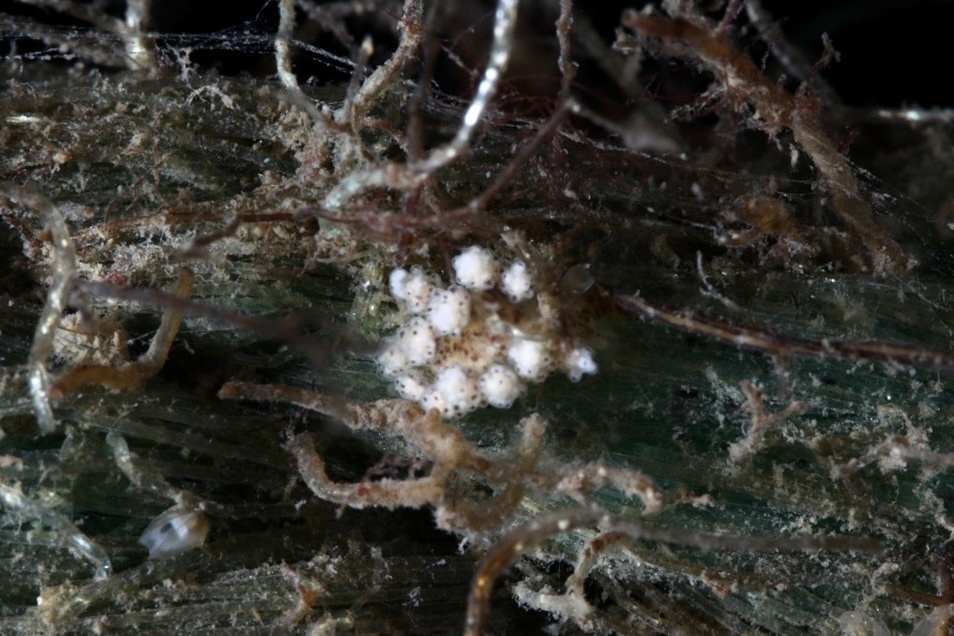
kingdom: Animalia
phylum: Mollusca
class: Gastropoda
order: Nudibranchia
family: Dotidae
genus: Doto
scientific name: Doto coronata
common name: Coronate doto
